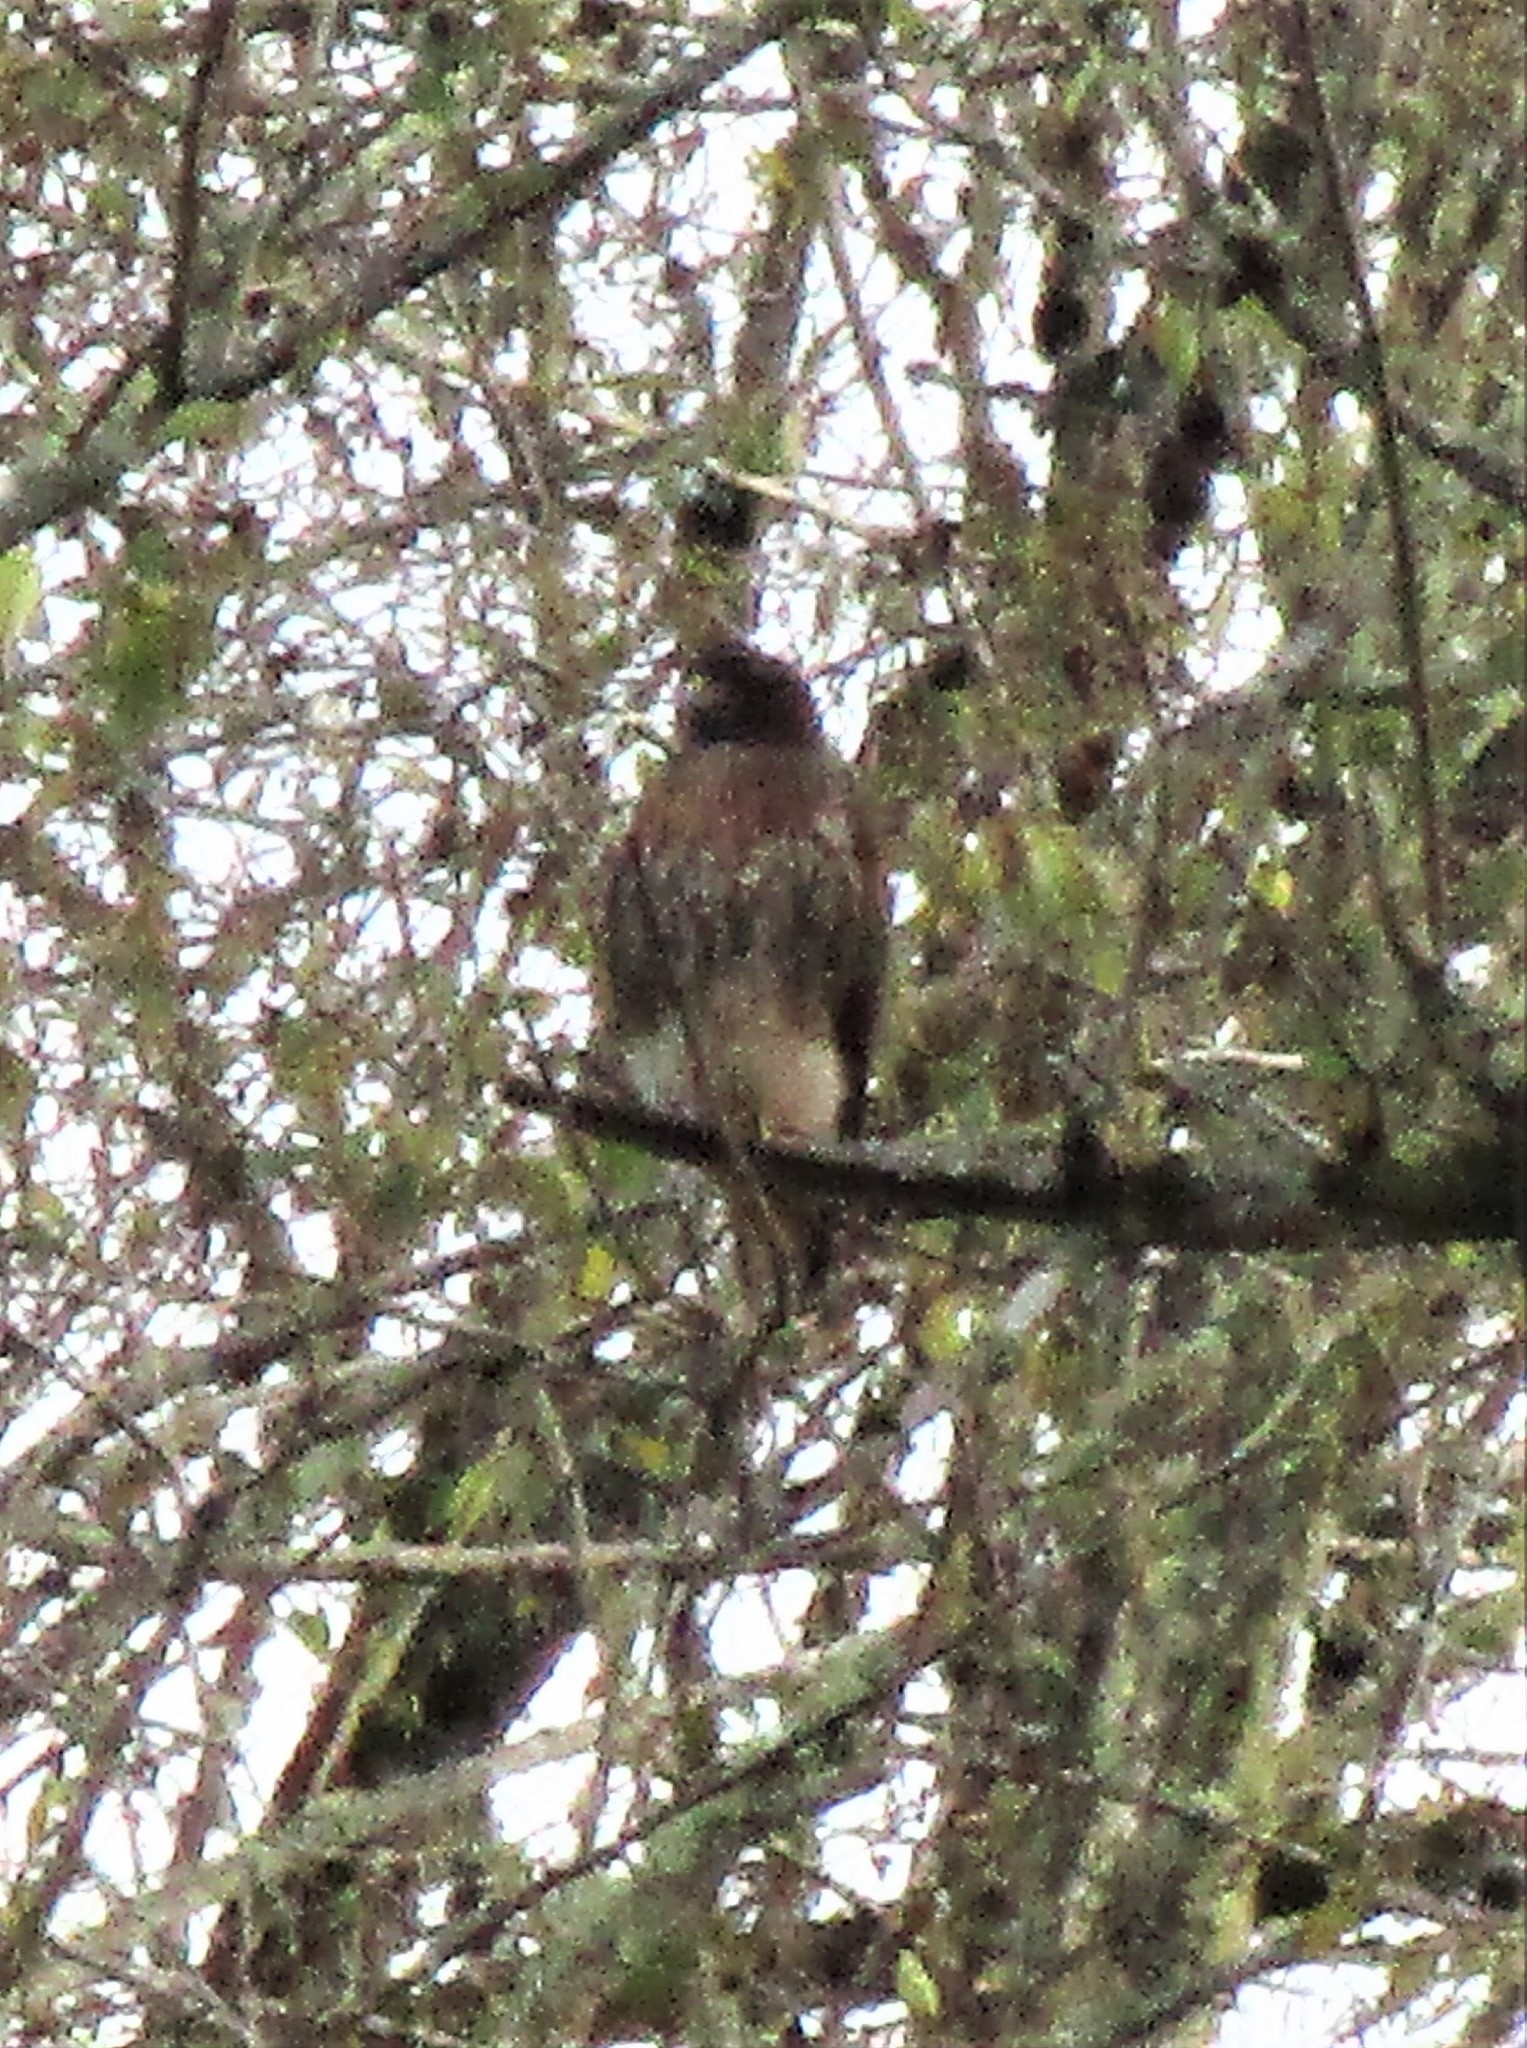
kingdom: Animalia
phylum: Chordata
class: Aves
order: Accipitriformes
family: Accipitridae
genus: Buteo
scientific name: Buteo jamaicensis
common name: Red-tailed hawk
